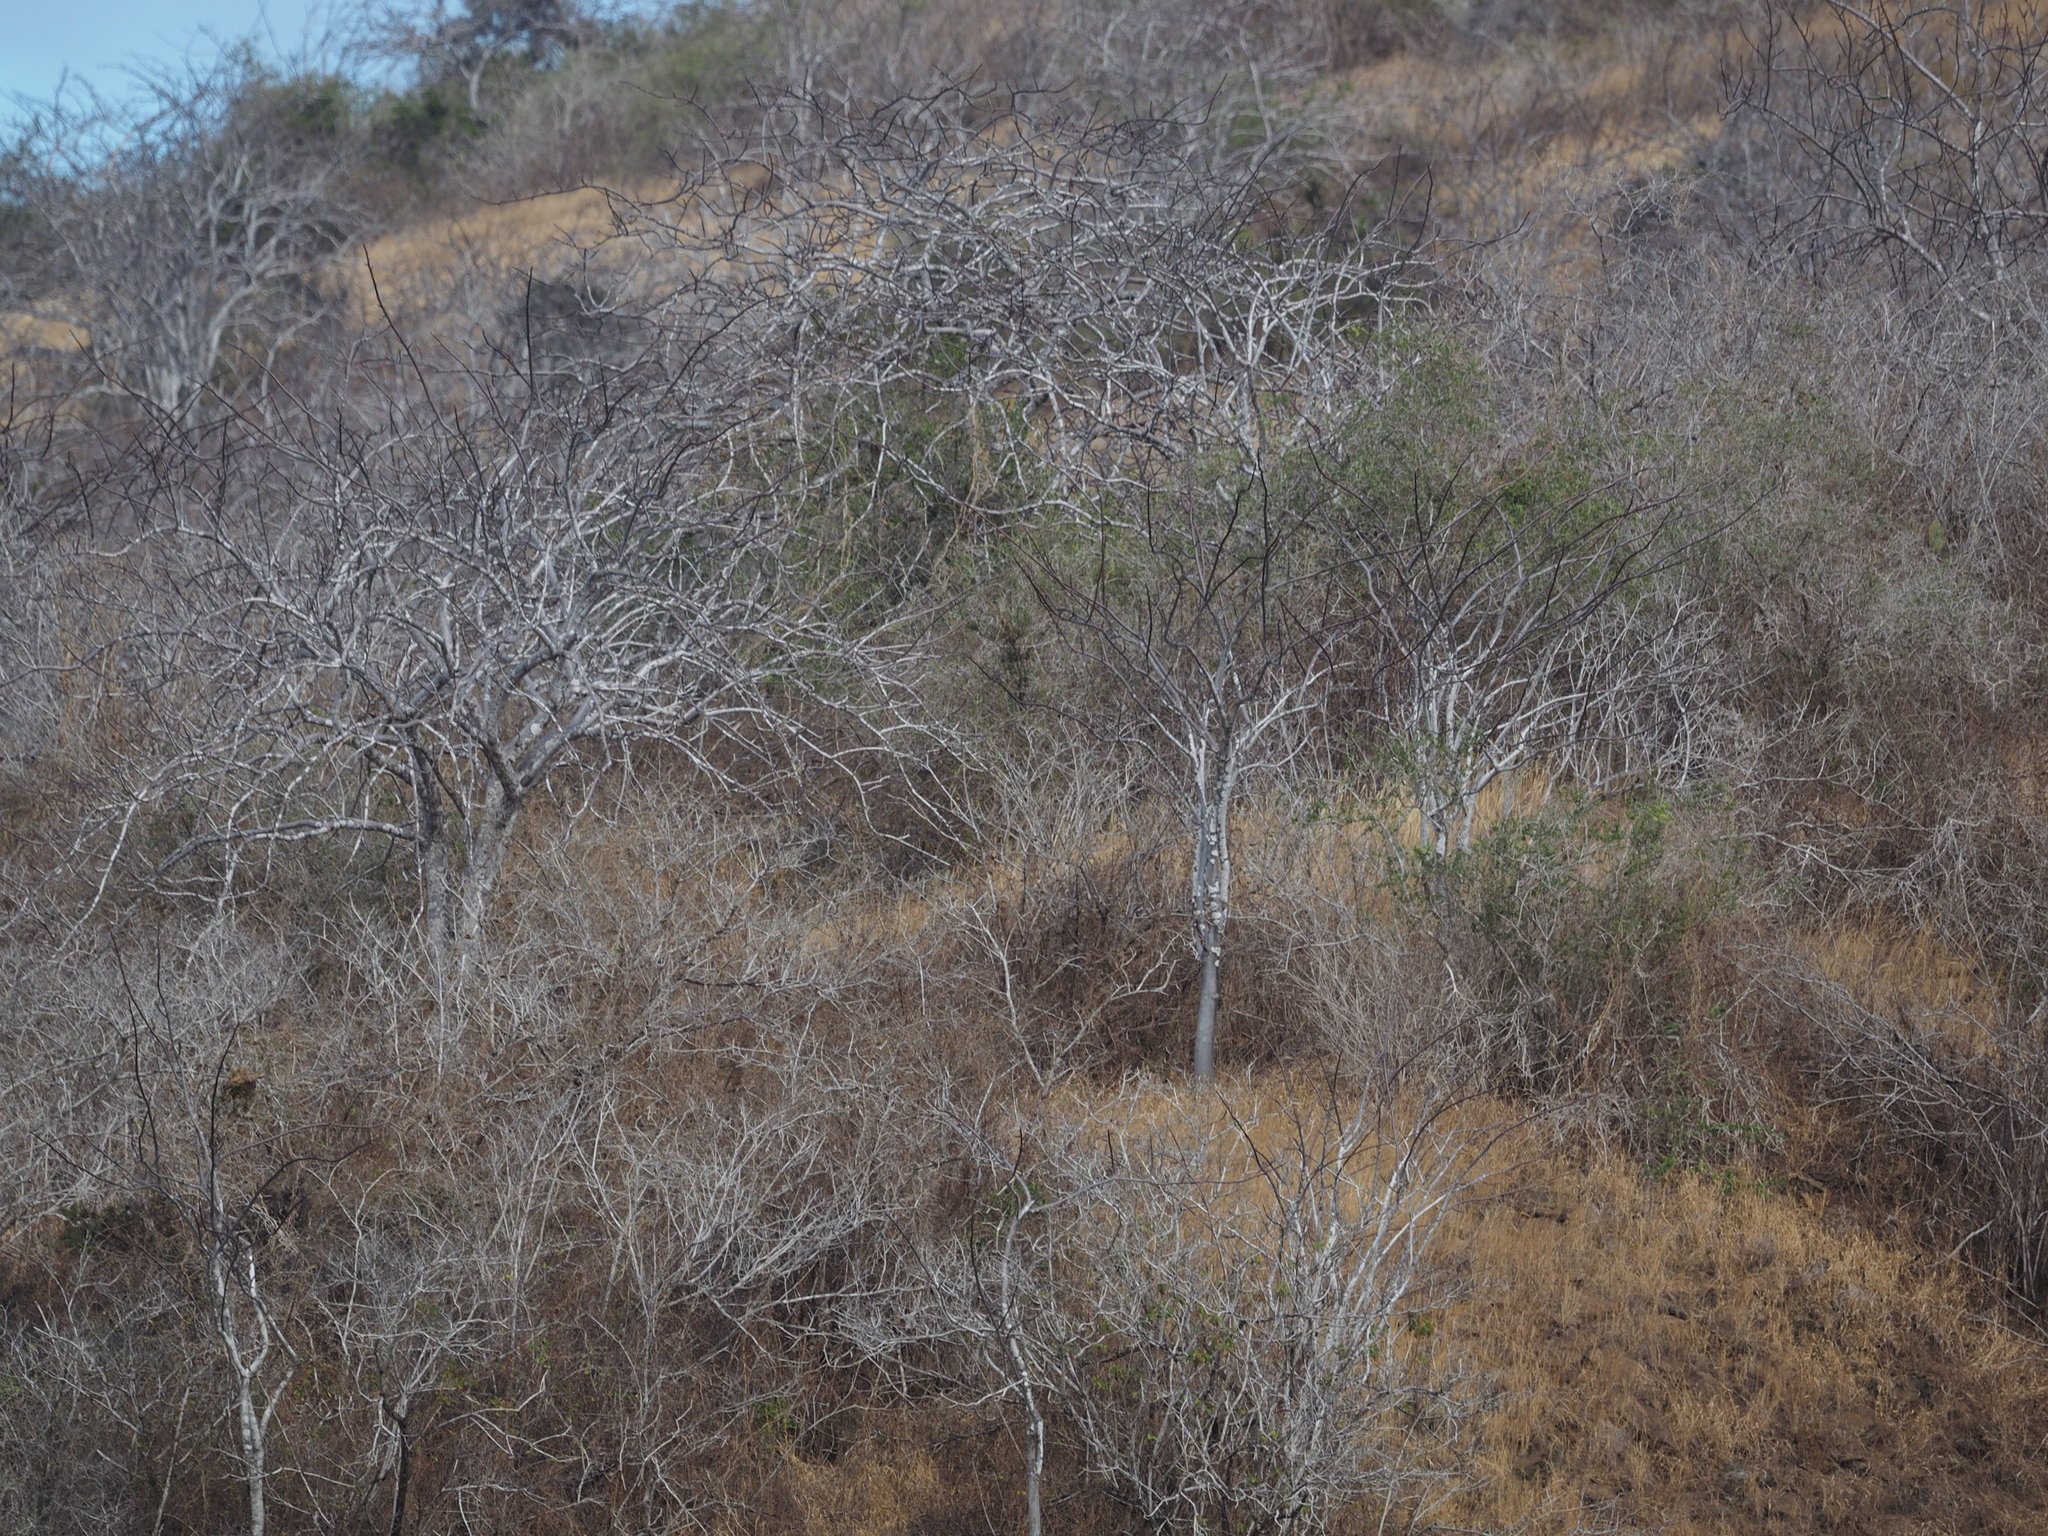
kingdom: Plantae
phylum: Tracheophyta
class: Magnoliopsida
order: Sapindales
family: Burseraceae
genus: Bursera
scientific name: Bursera graveolens
